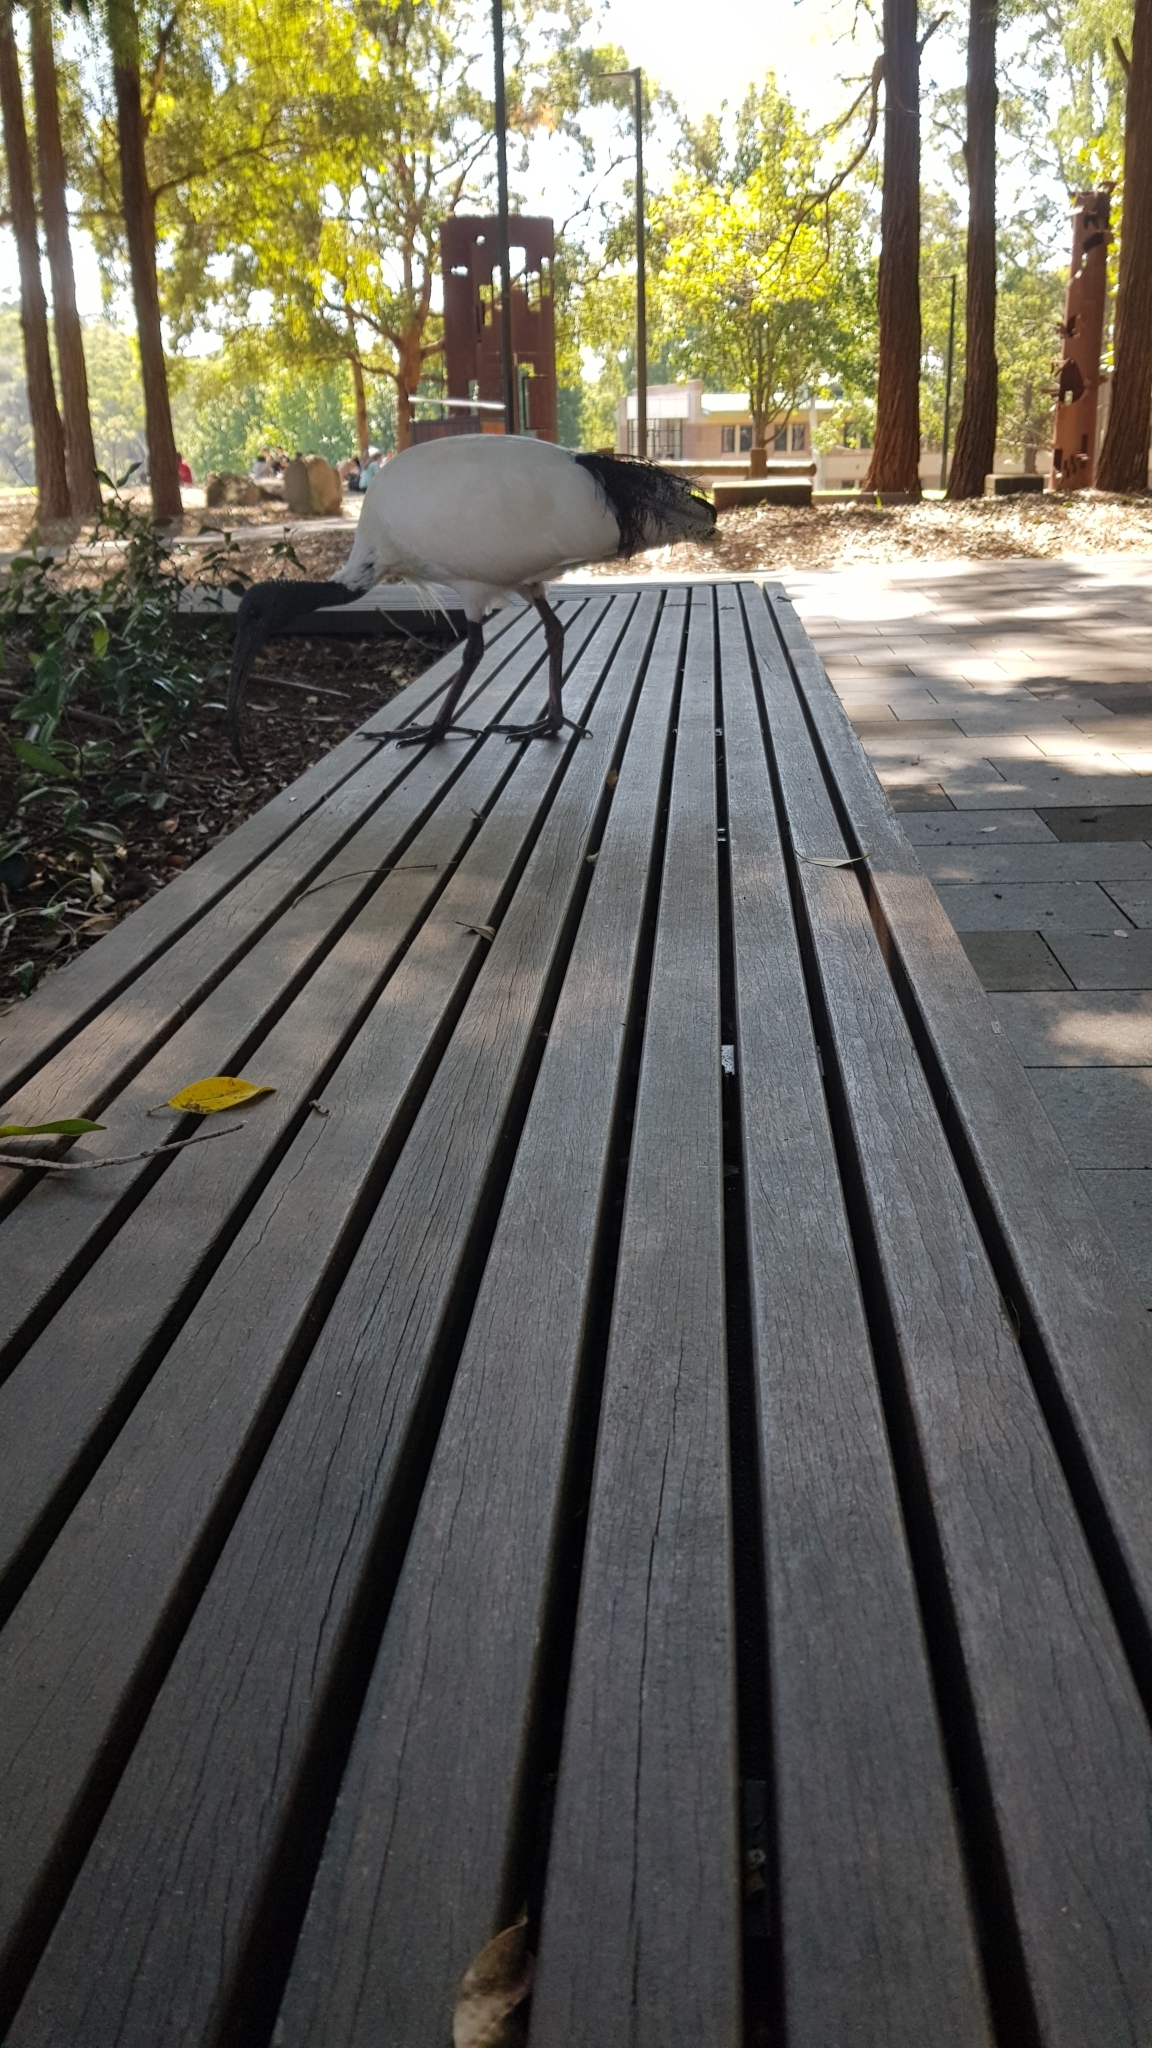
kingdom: Animalia
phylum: Chordata
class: Aves
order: Pelecaniformes
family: Threskiornithidae
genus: Threskiornis
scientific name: Threskiornis molucca
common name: Australian white ibis
